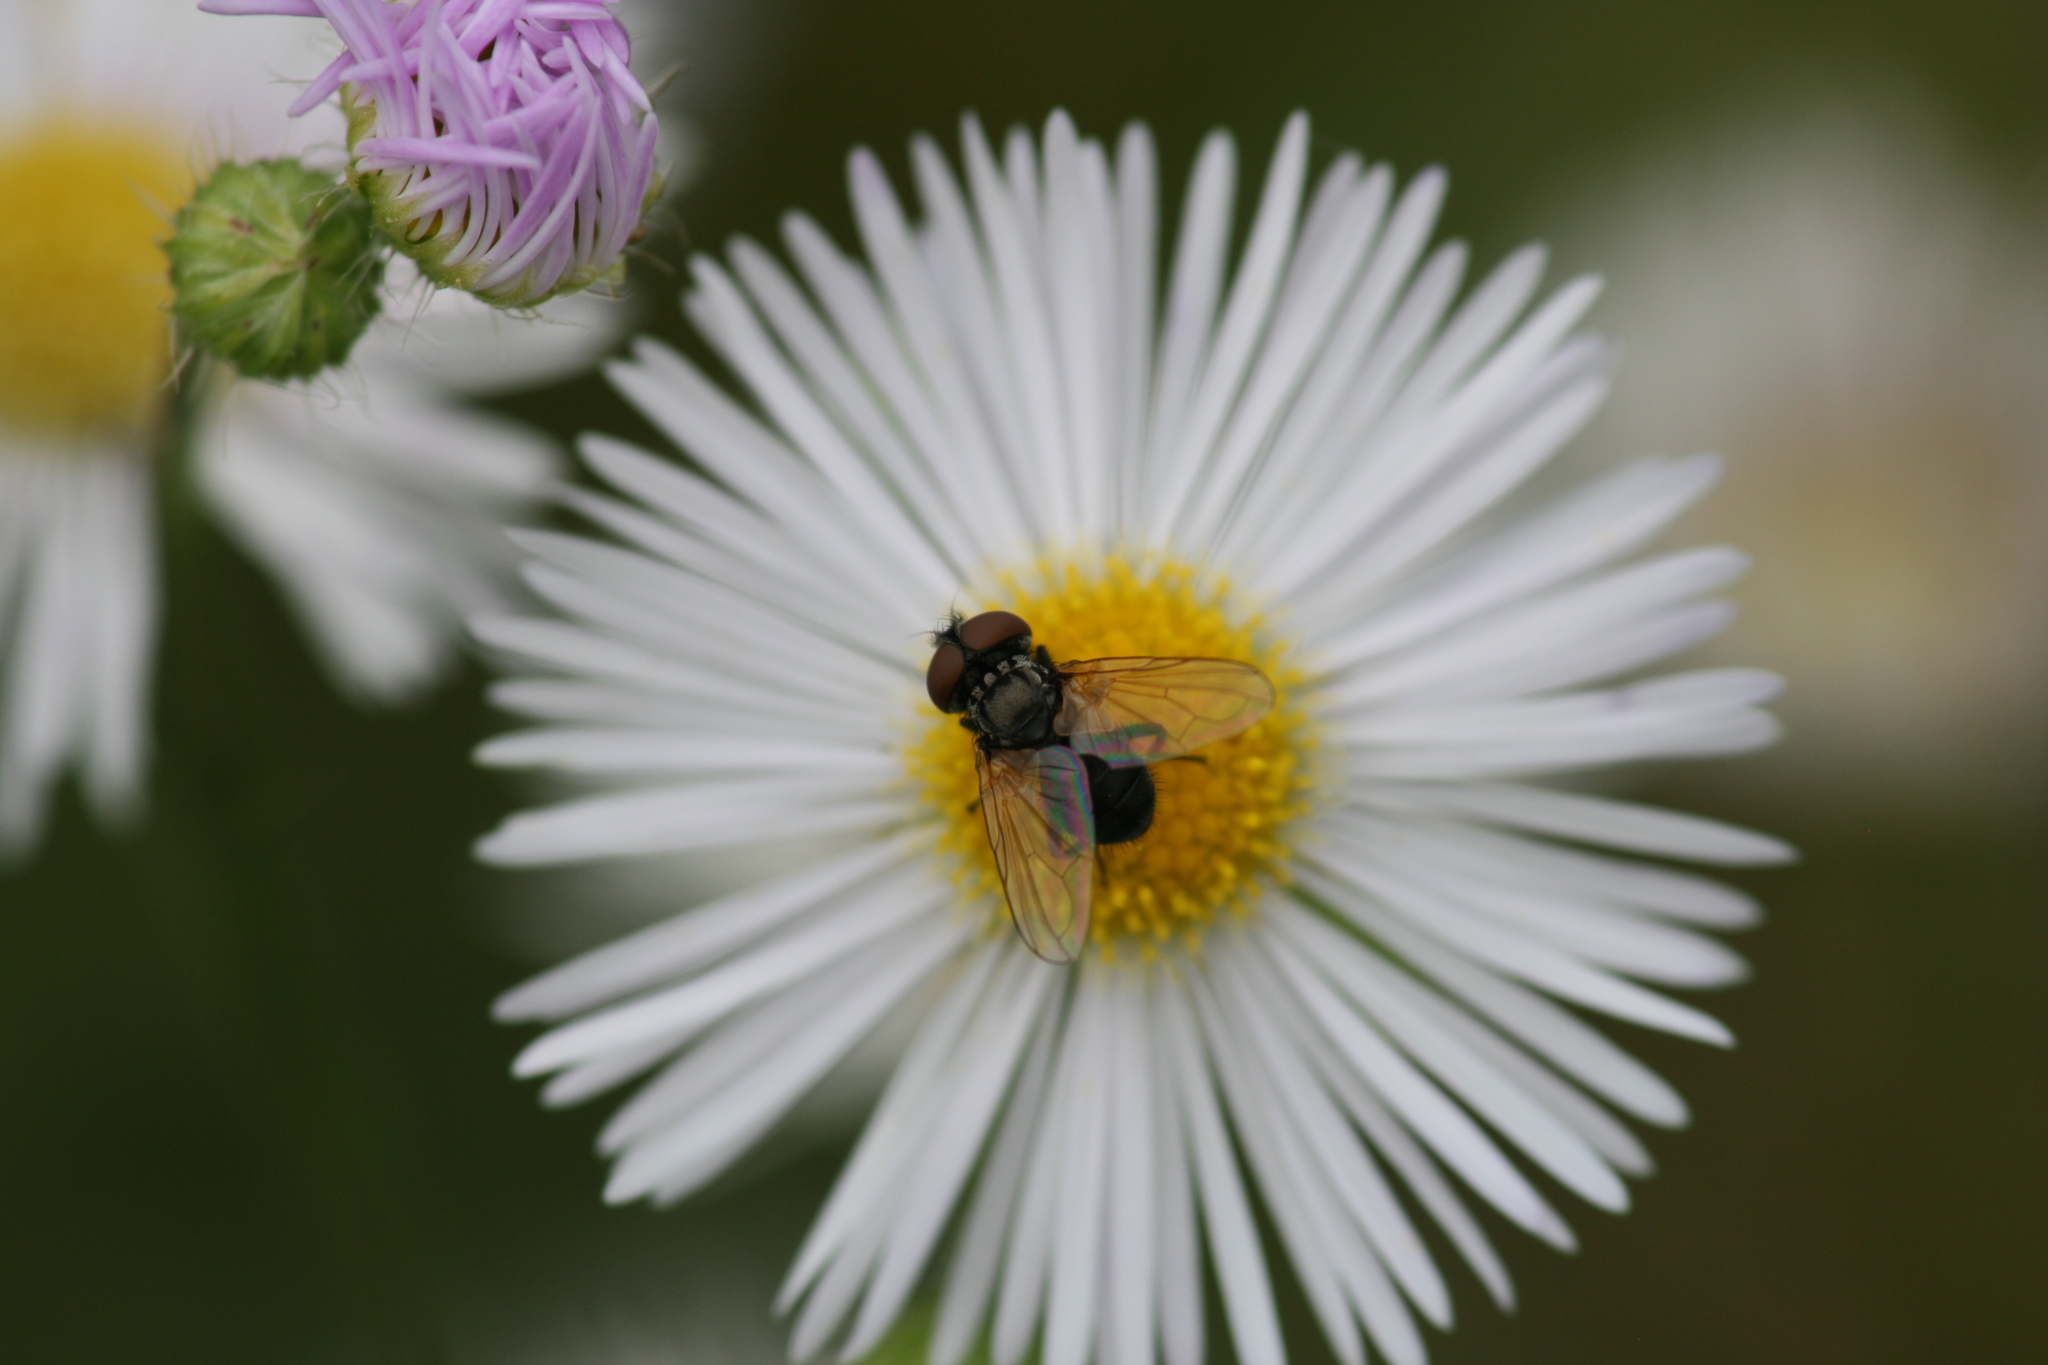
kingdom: Animalia
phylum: Arthropoda
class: Insecta
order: Diptera
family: Tachinidae
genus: Phasia
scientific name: Phasia obesa
